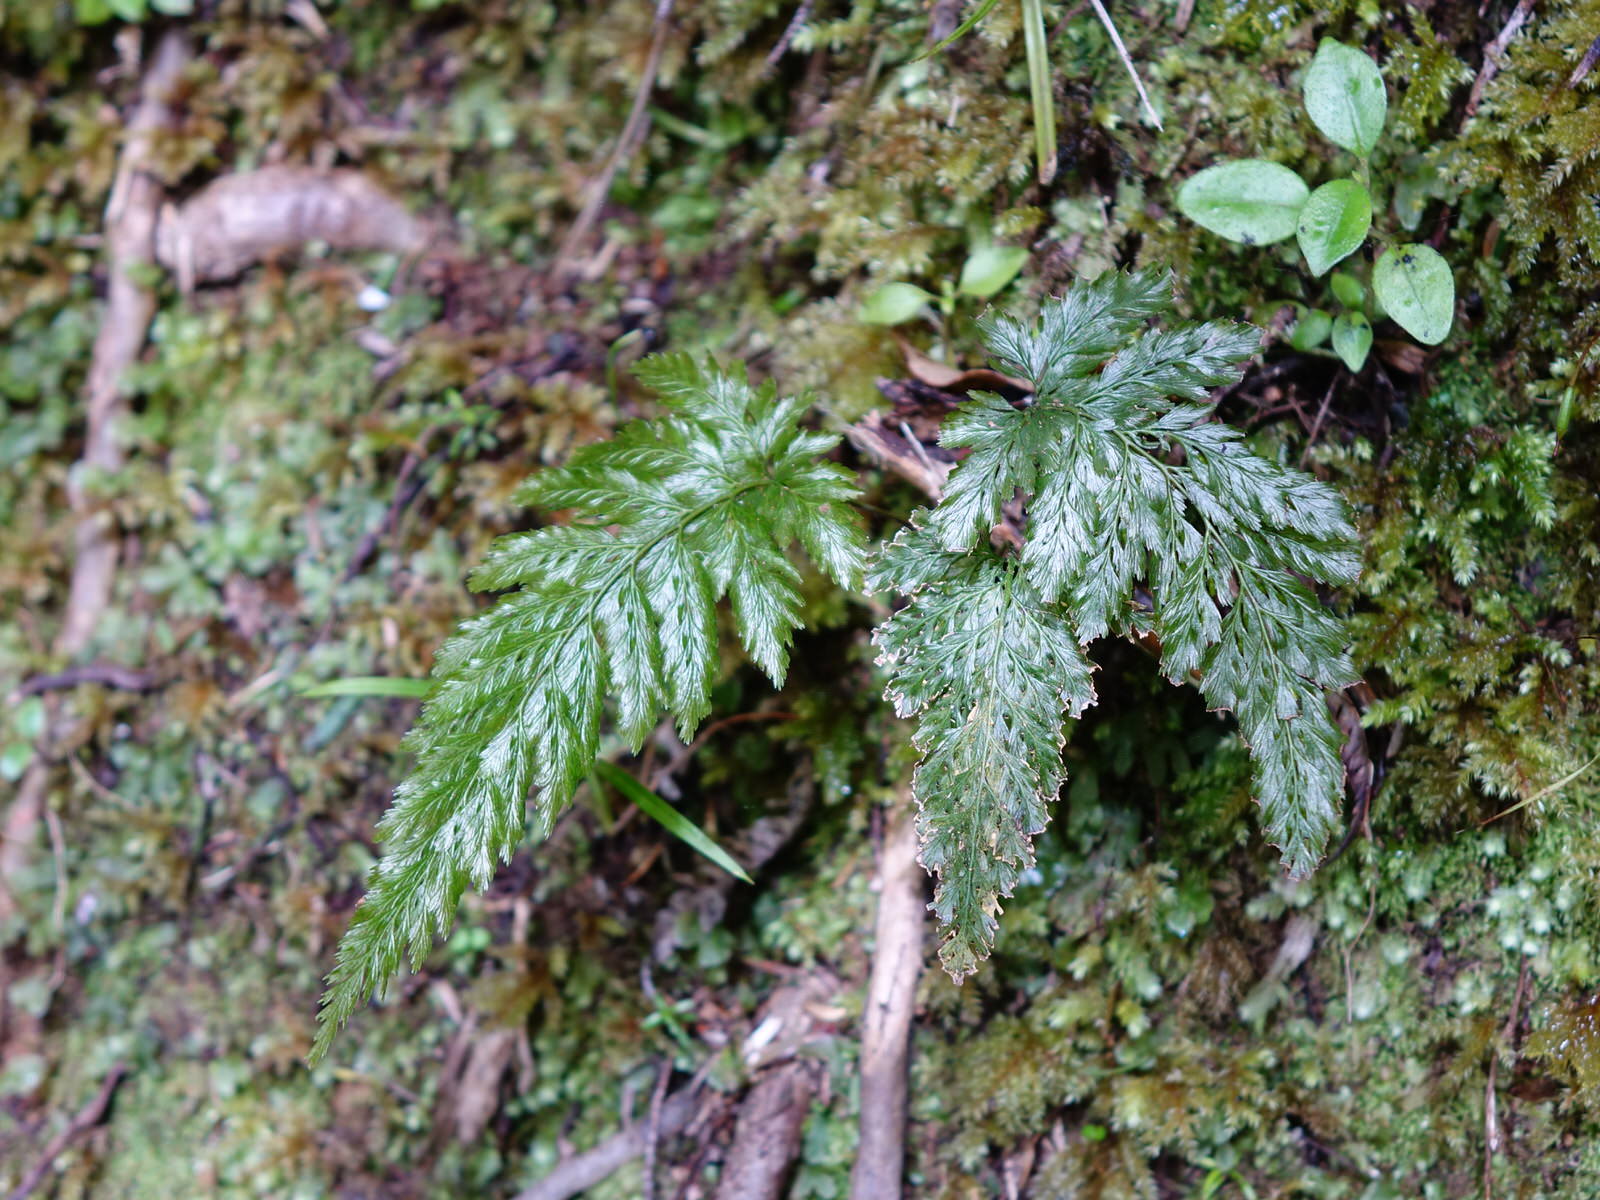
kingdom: Plantae
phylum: Tracheophyta
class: Polypodiopsida
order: Hymenophyllales
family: Hymenophyllaceae
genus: Abrodictyum
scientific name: Abrodictyum elongatum
